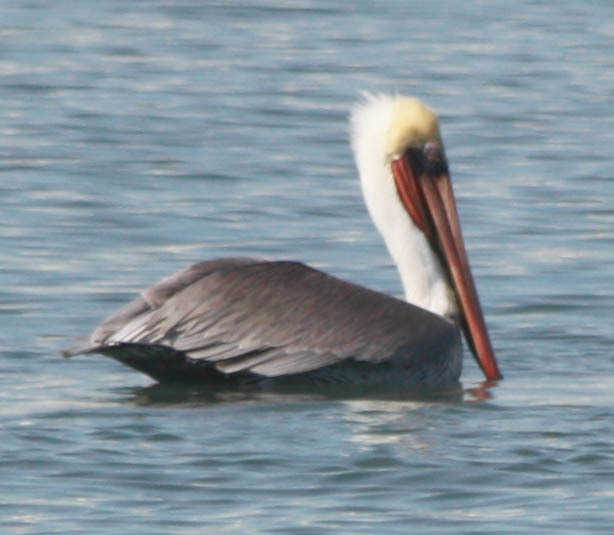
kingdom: Animalia
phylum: Chordata
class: Aves
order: Pelecaniformes
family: Pelecanidae
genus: Pelecanus
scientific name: Pelecanus occidentalis
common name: Brown pelican
